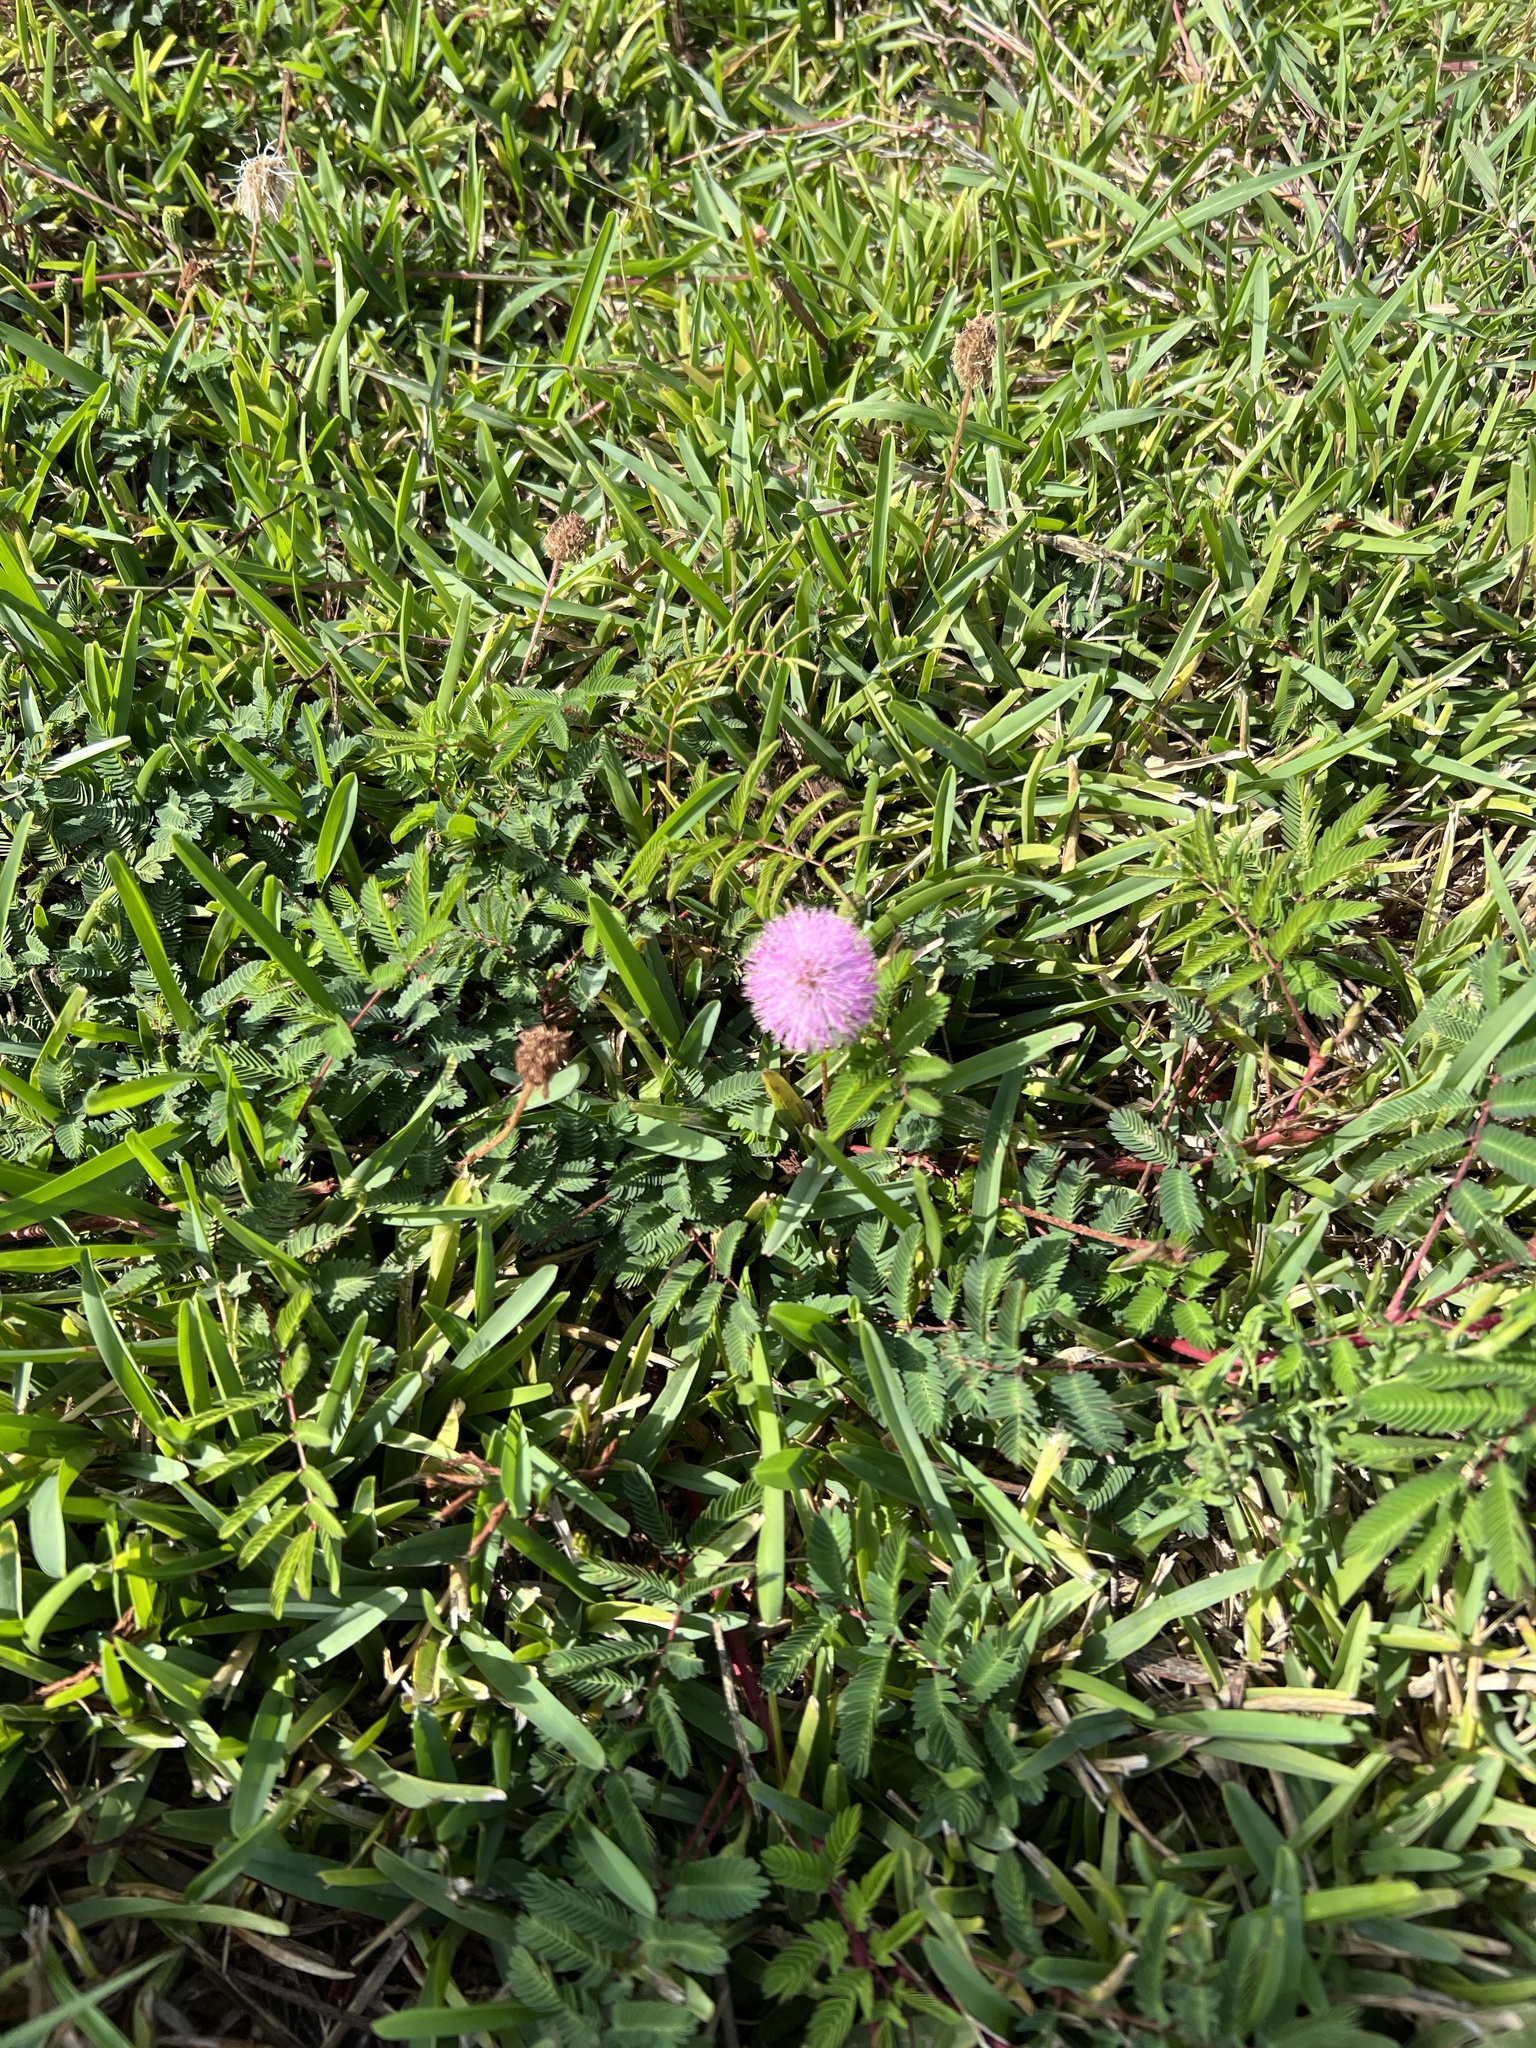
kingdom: Plantae
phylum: Tracheophyta
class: Magnoliopsida
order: Fabales
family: Fabaceae
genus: Mimosa
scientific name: Mimosa strigillosa
